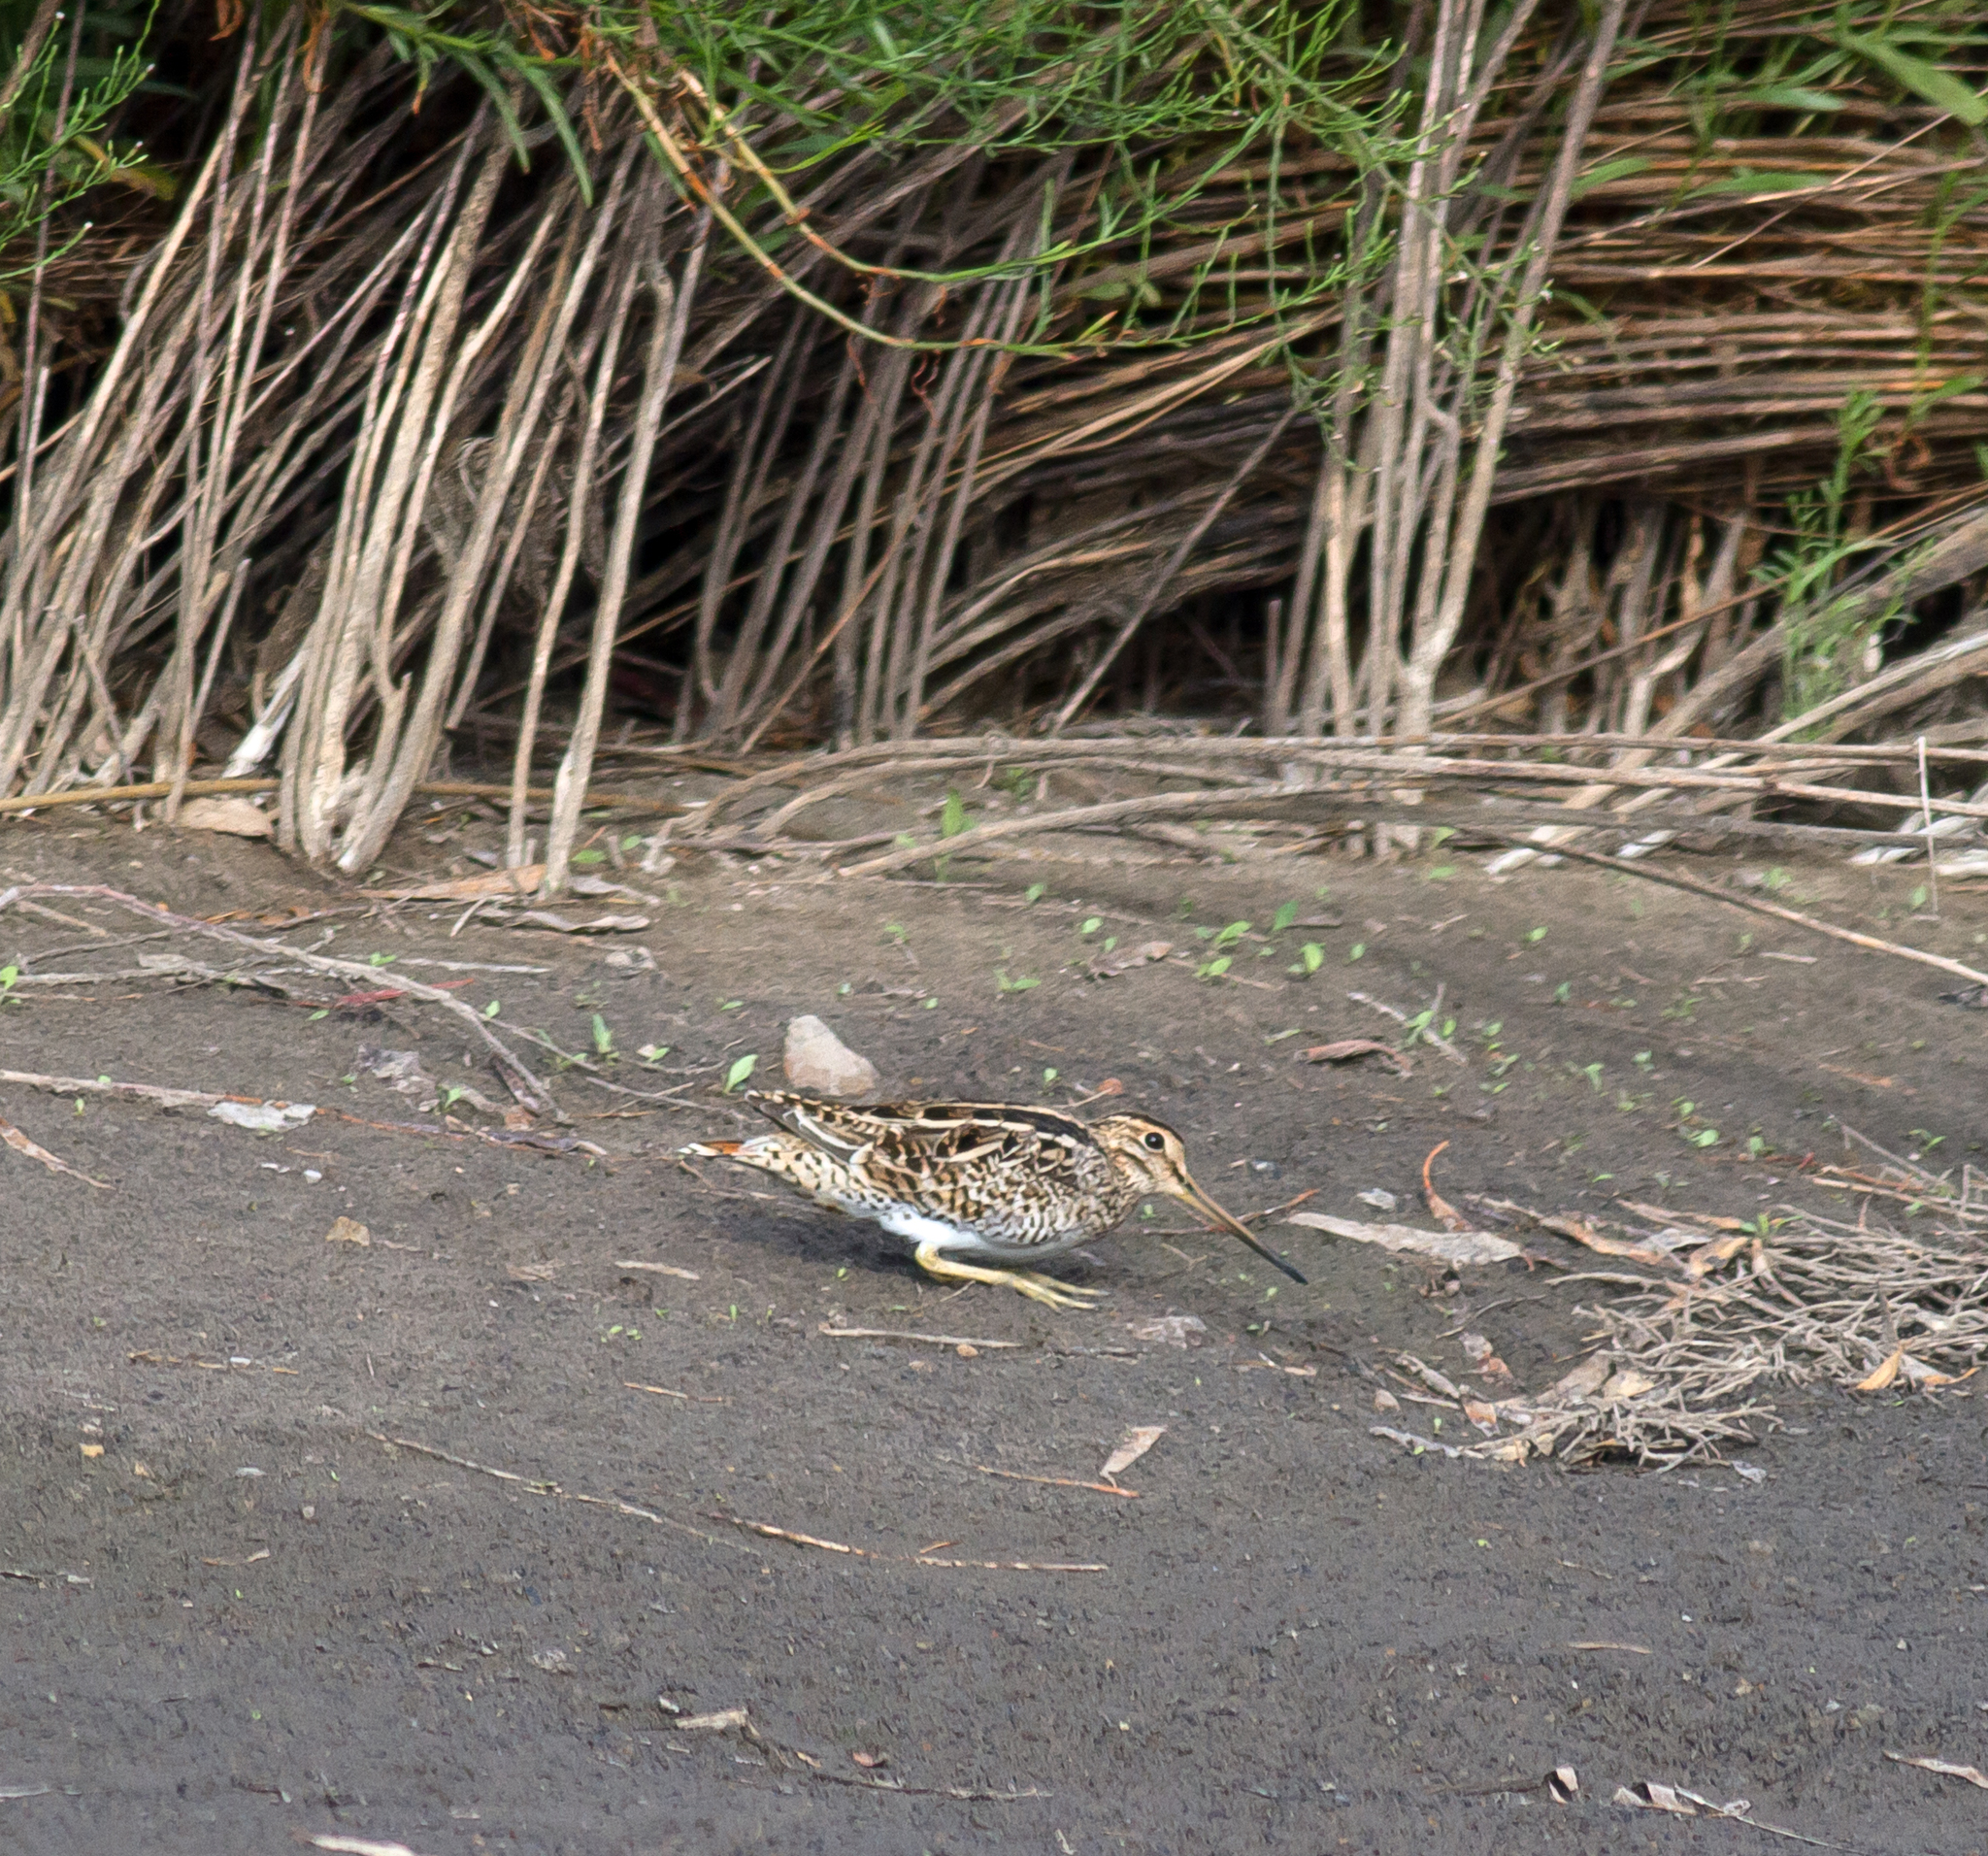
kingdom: Animalia
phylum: Chordata
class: Aves
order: Charadriiformes
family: Scolopacidae
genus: Gallinago
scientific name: Gallinago hardwickii
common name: Latham's snipe
